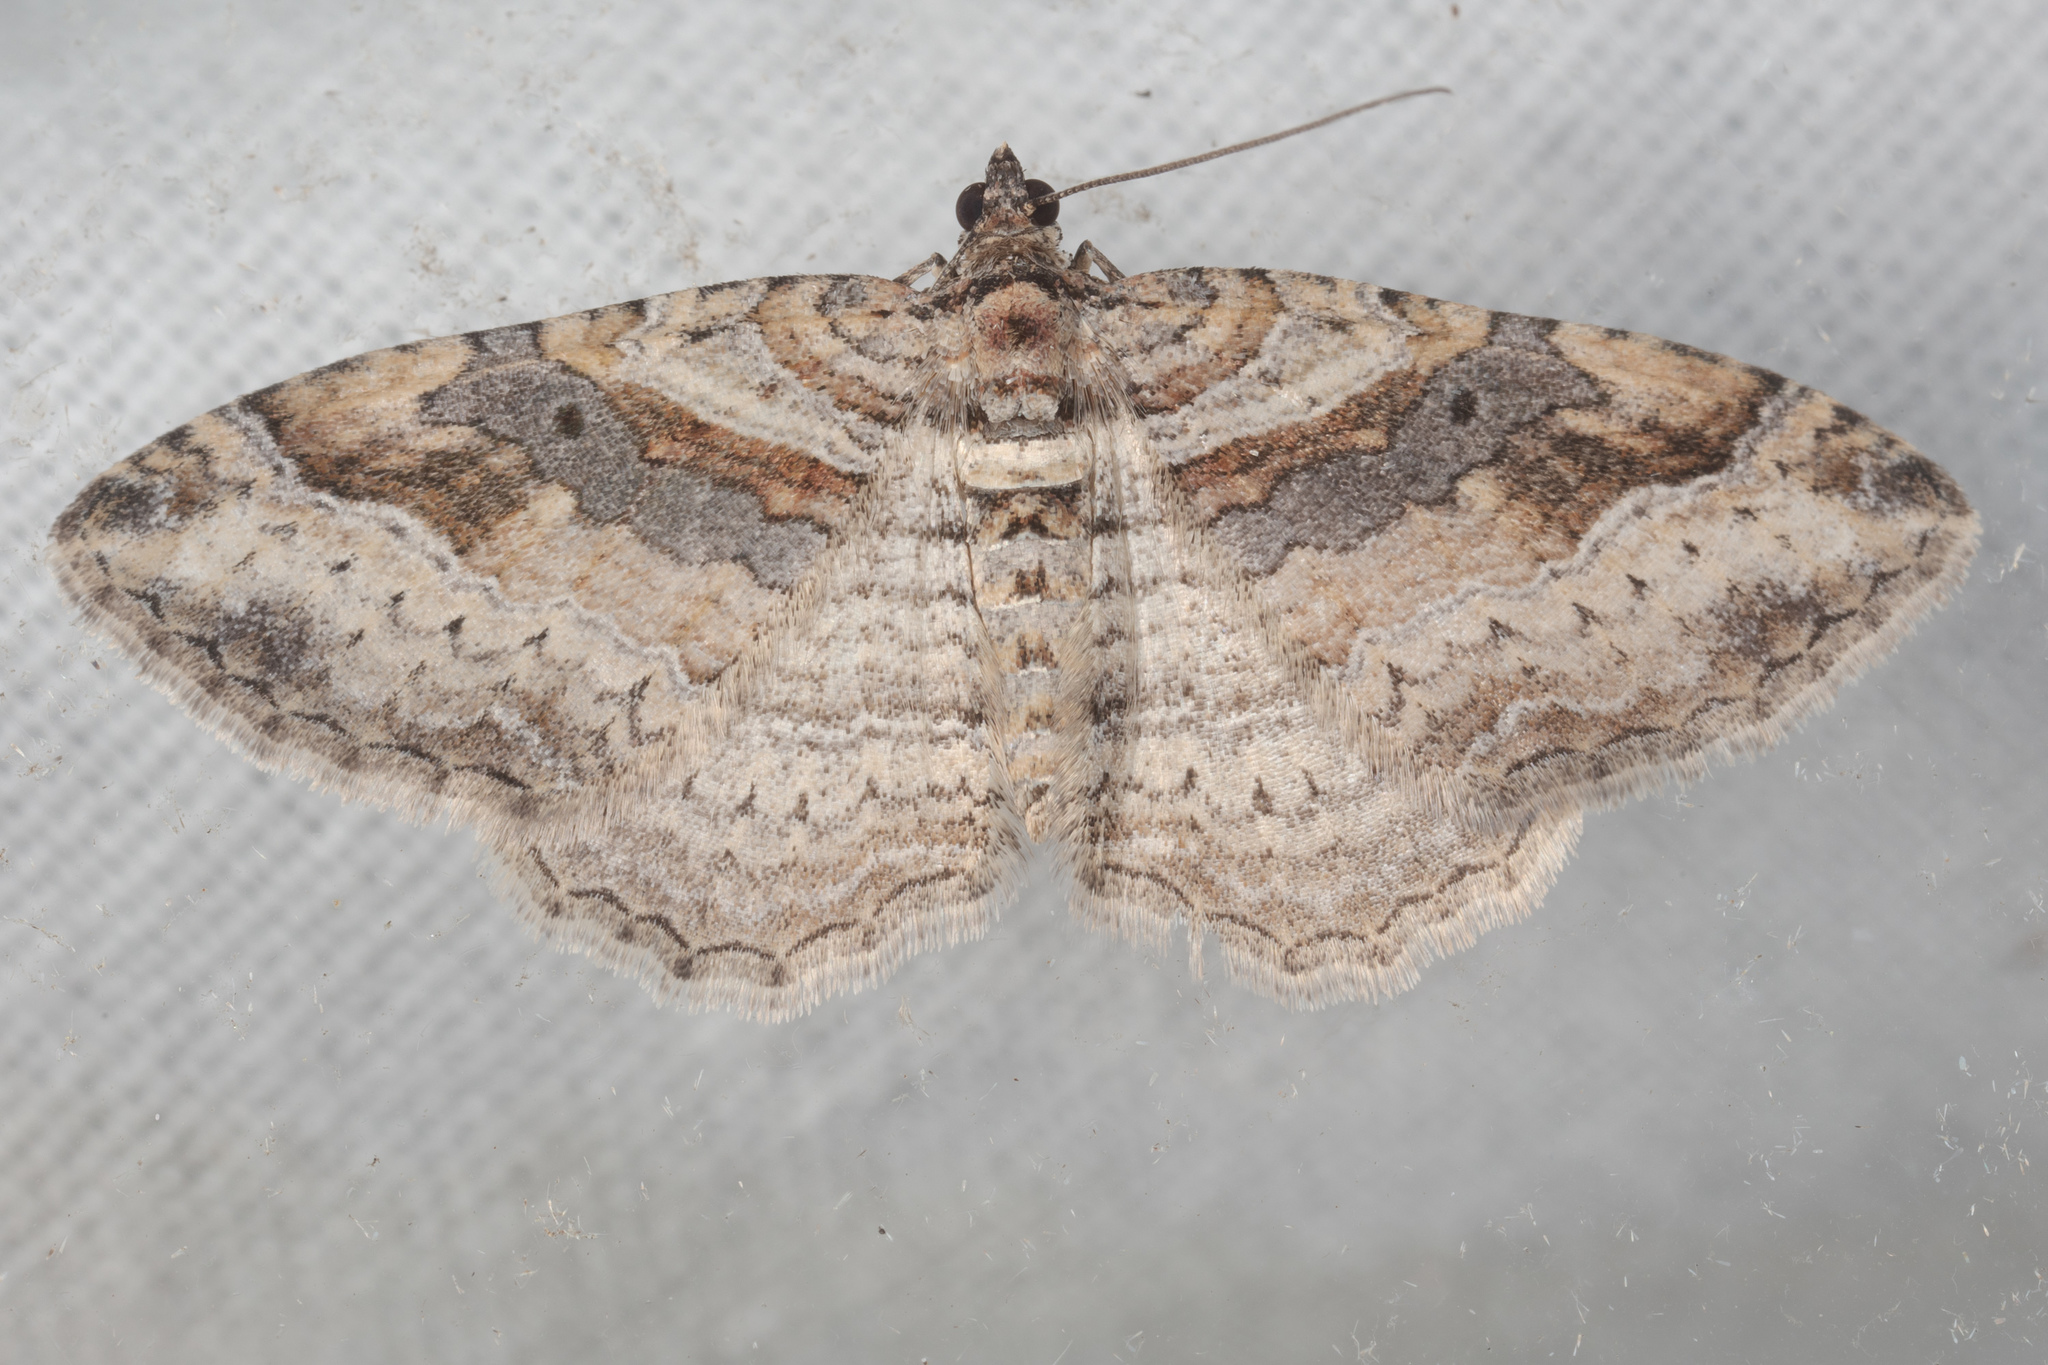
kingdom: Animalia
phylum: Arthropoda
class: Insecta
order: Lepidoptera
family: Geometridae
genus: Costaconvexa
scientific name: Costaconvexa centrostrigaria
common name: Bent-line carpet
